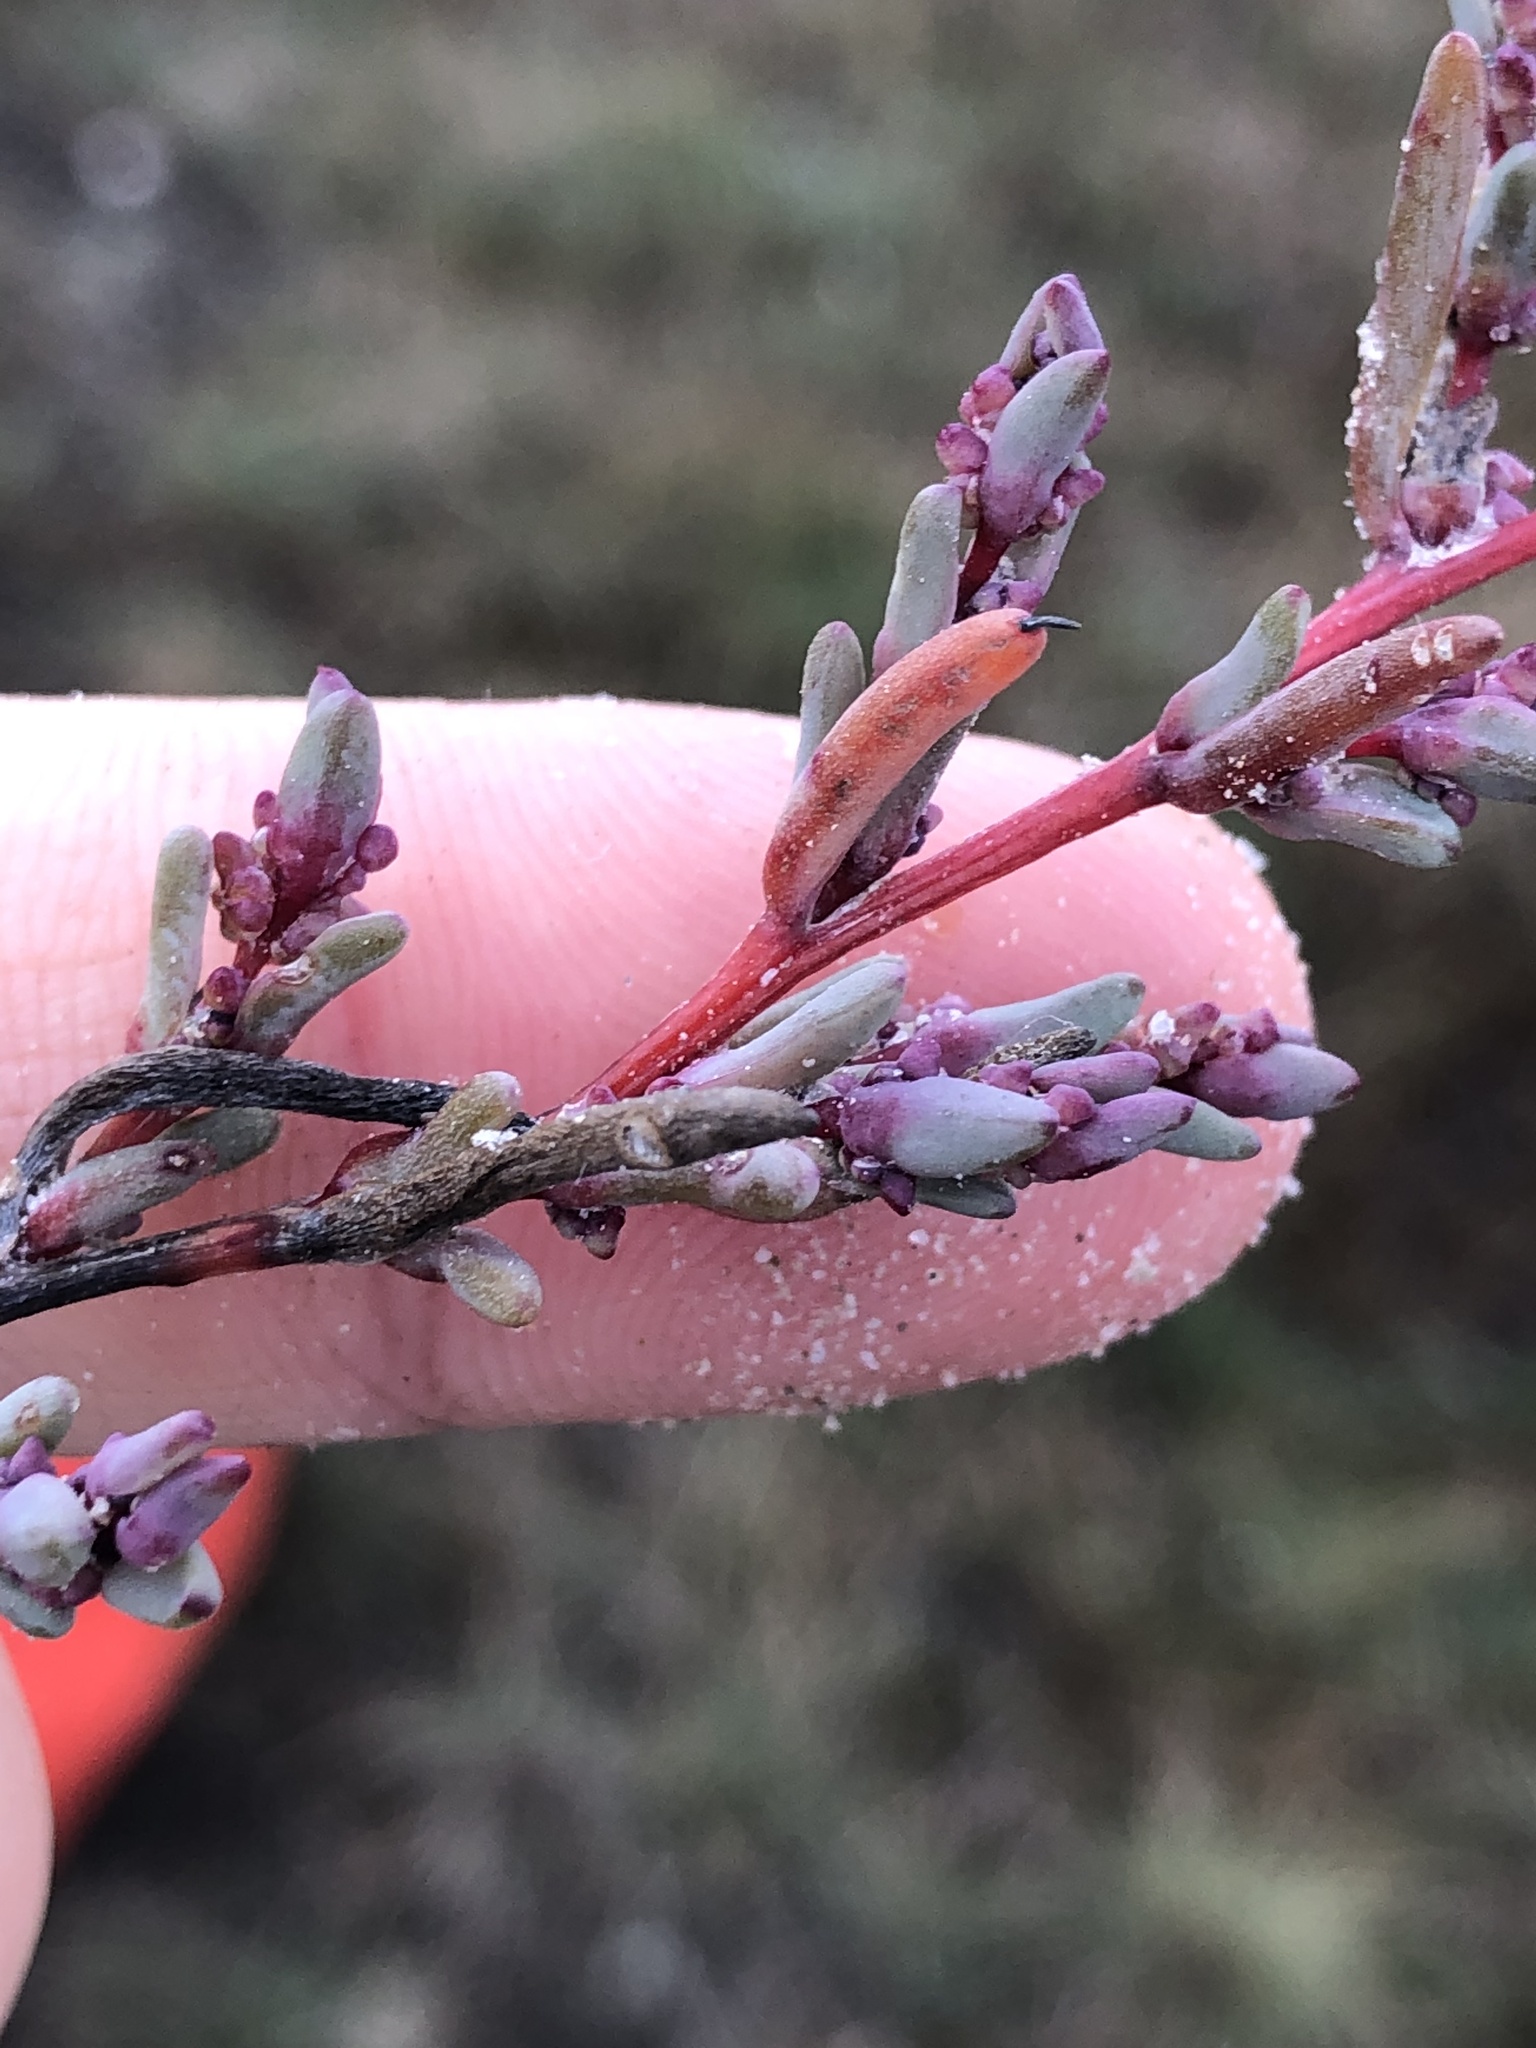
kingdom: Plantae
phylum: Tracheophyta
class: Magnoliopsida
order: Caryophyllales
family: Amaranthaceae
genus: Suaeda
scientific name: Suaeda pannonica
